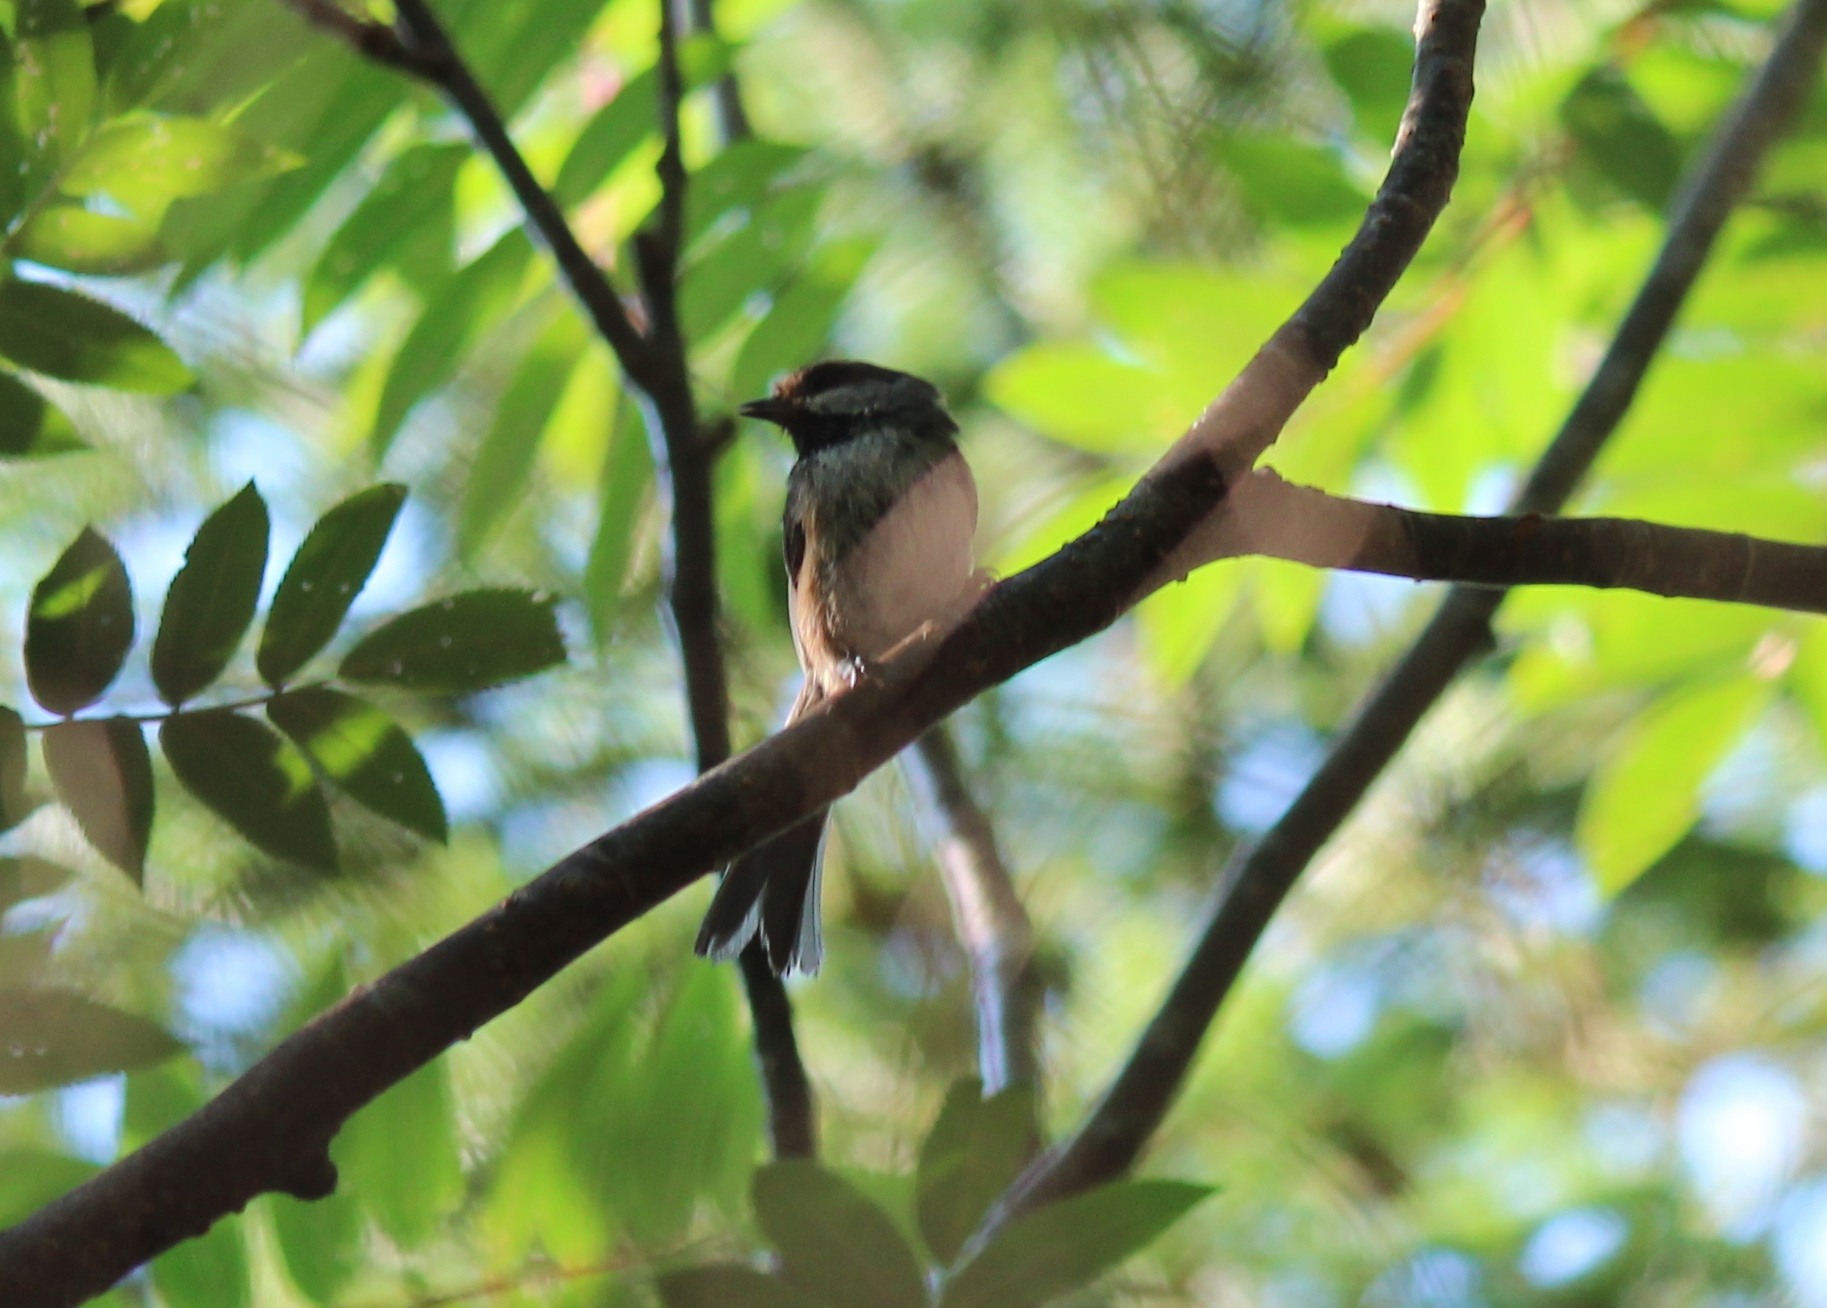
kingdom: Animalia
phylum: Chordata
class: Aves
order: Passeriformes
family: Paridae
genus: Poecile
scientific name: Poecile hudsonicus
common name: Boreal chickadee
